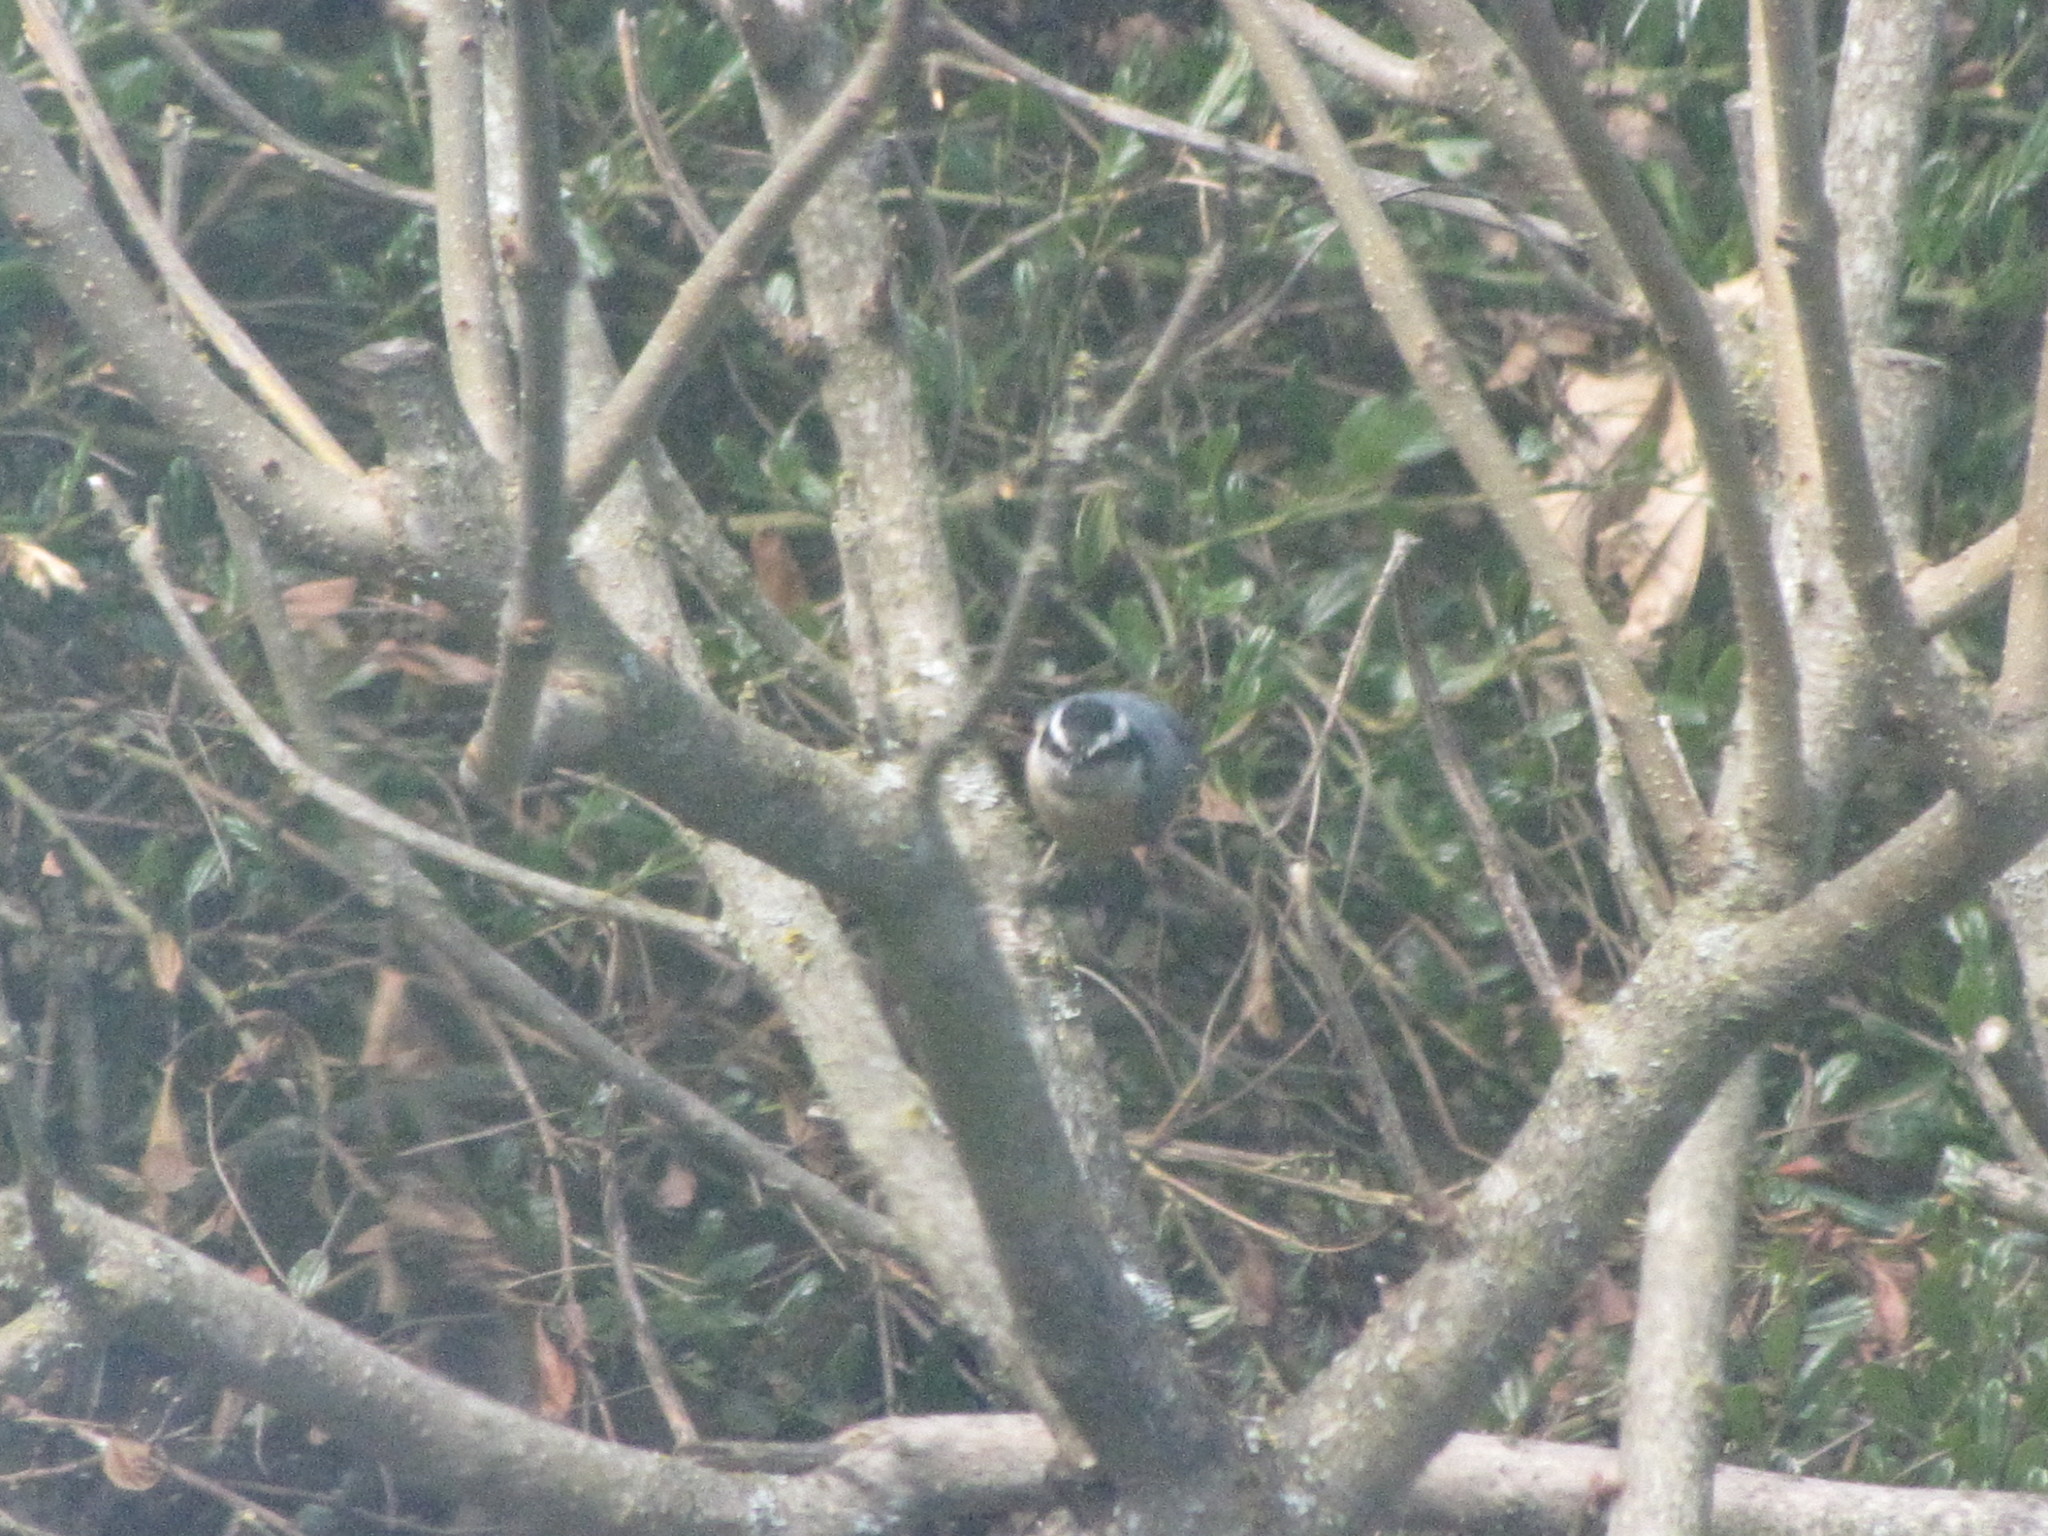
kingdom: Animalia
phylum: Chordata
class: Aves
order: Passeriformes
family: Sittidae
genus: Sitta
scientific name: Sitta canadensis
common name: Red-breasted nuthatch
